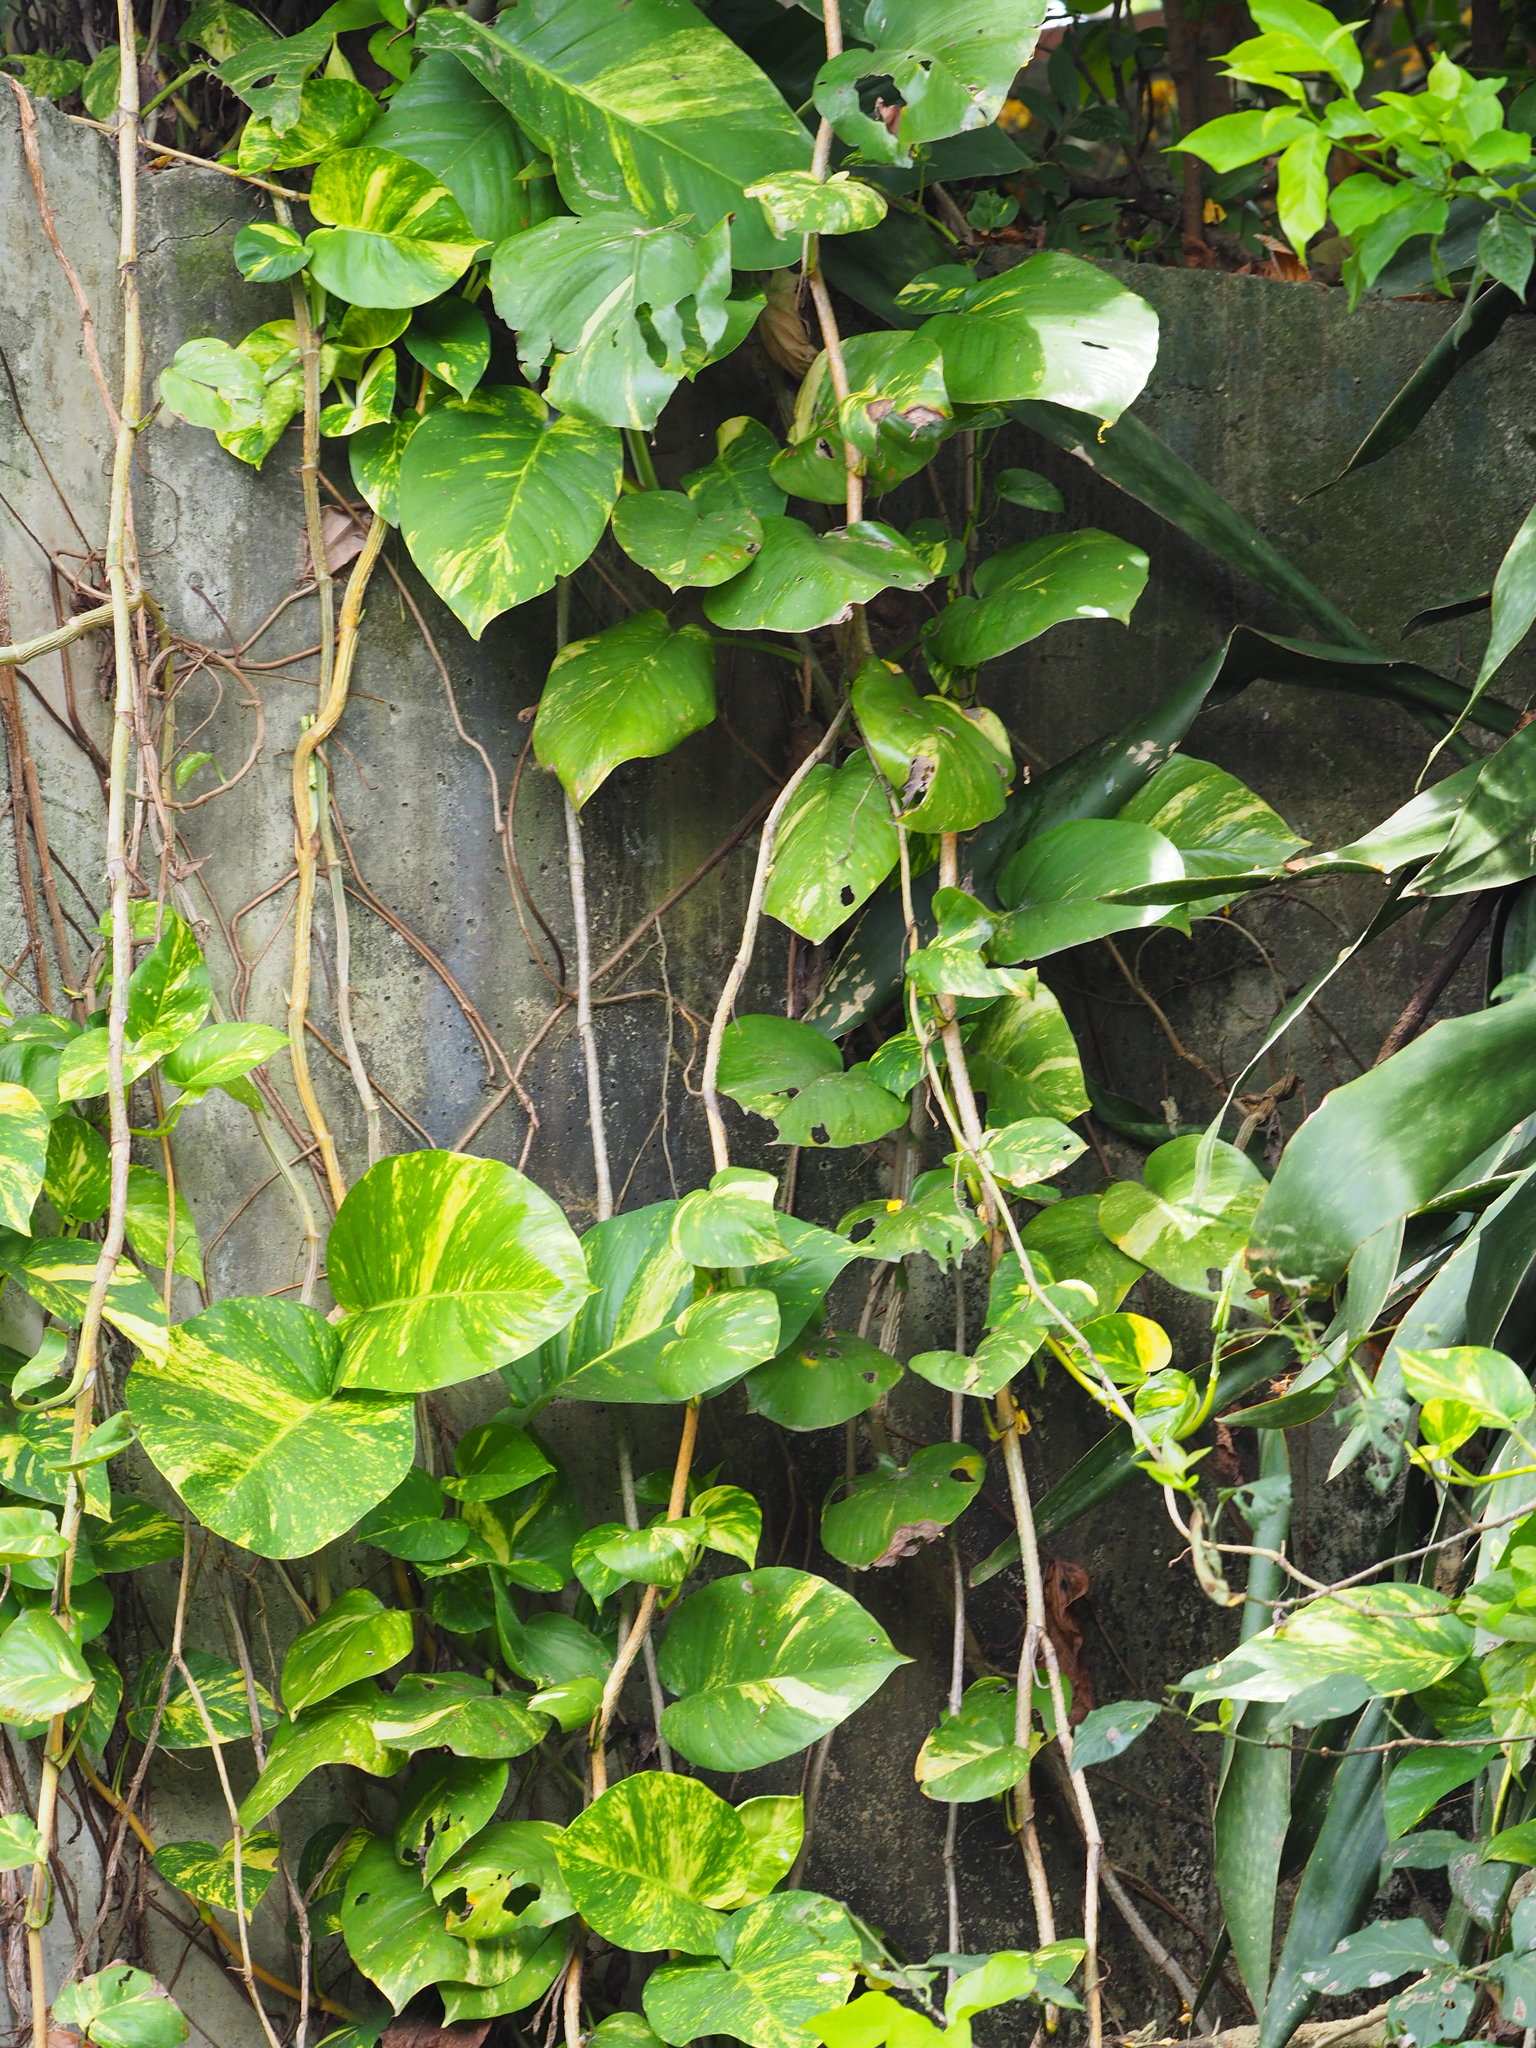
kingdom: Plantae
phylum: Tracheophyta
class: Liliopsida
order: Alismatales
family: Araceae
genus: Epipremnum
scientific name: Epipremnum aureum
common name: Golden hunter's-robe
